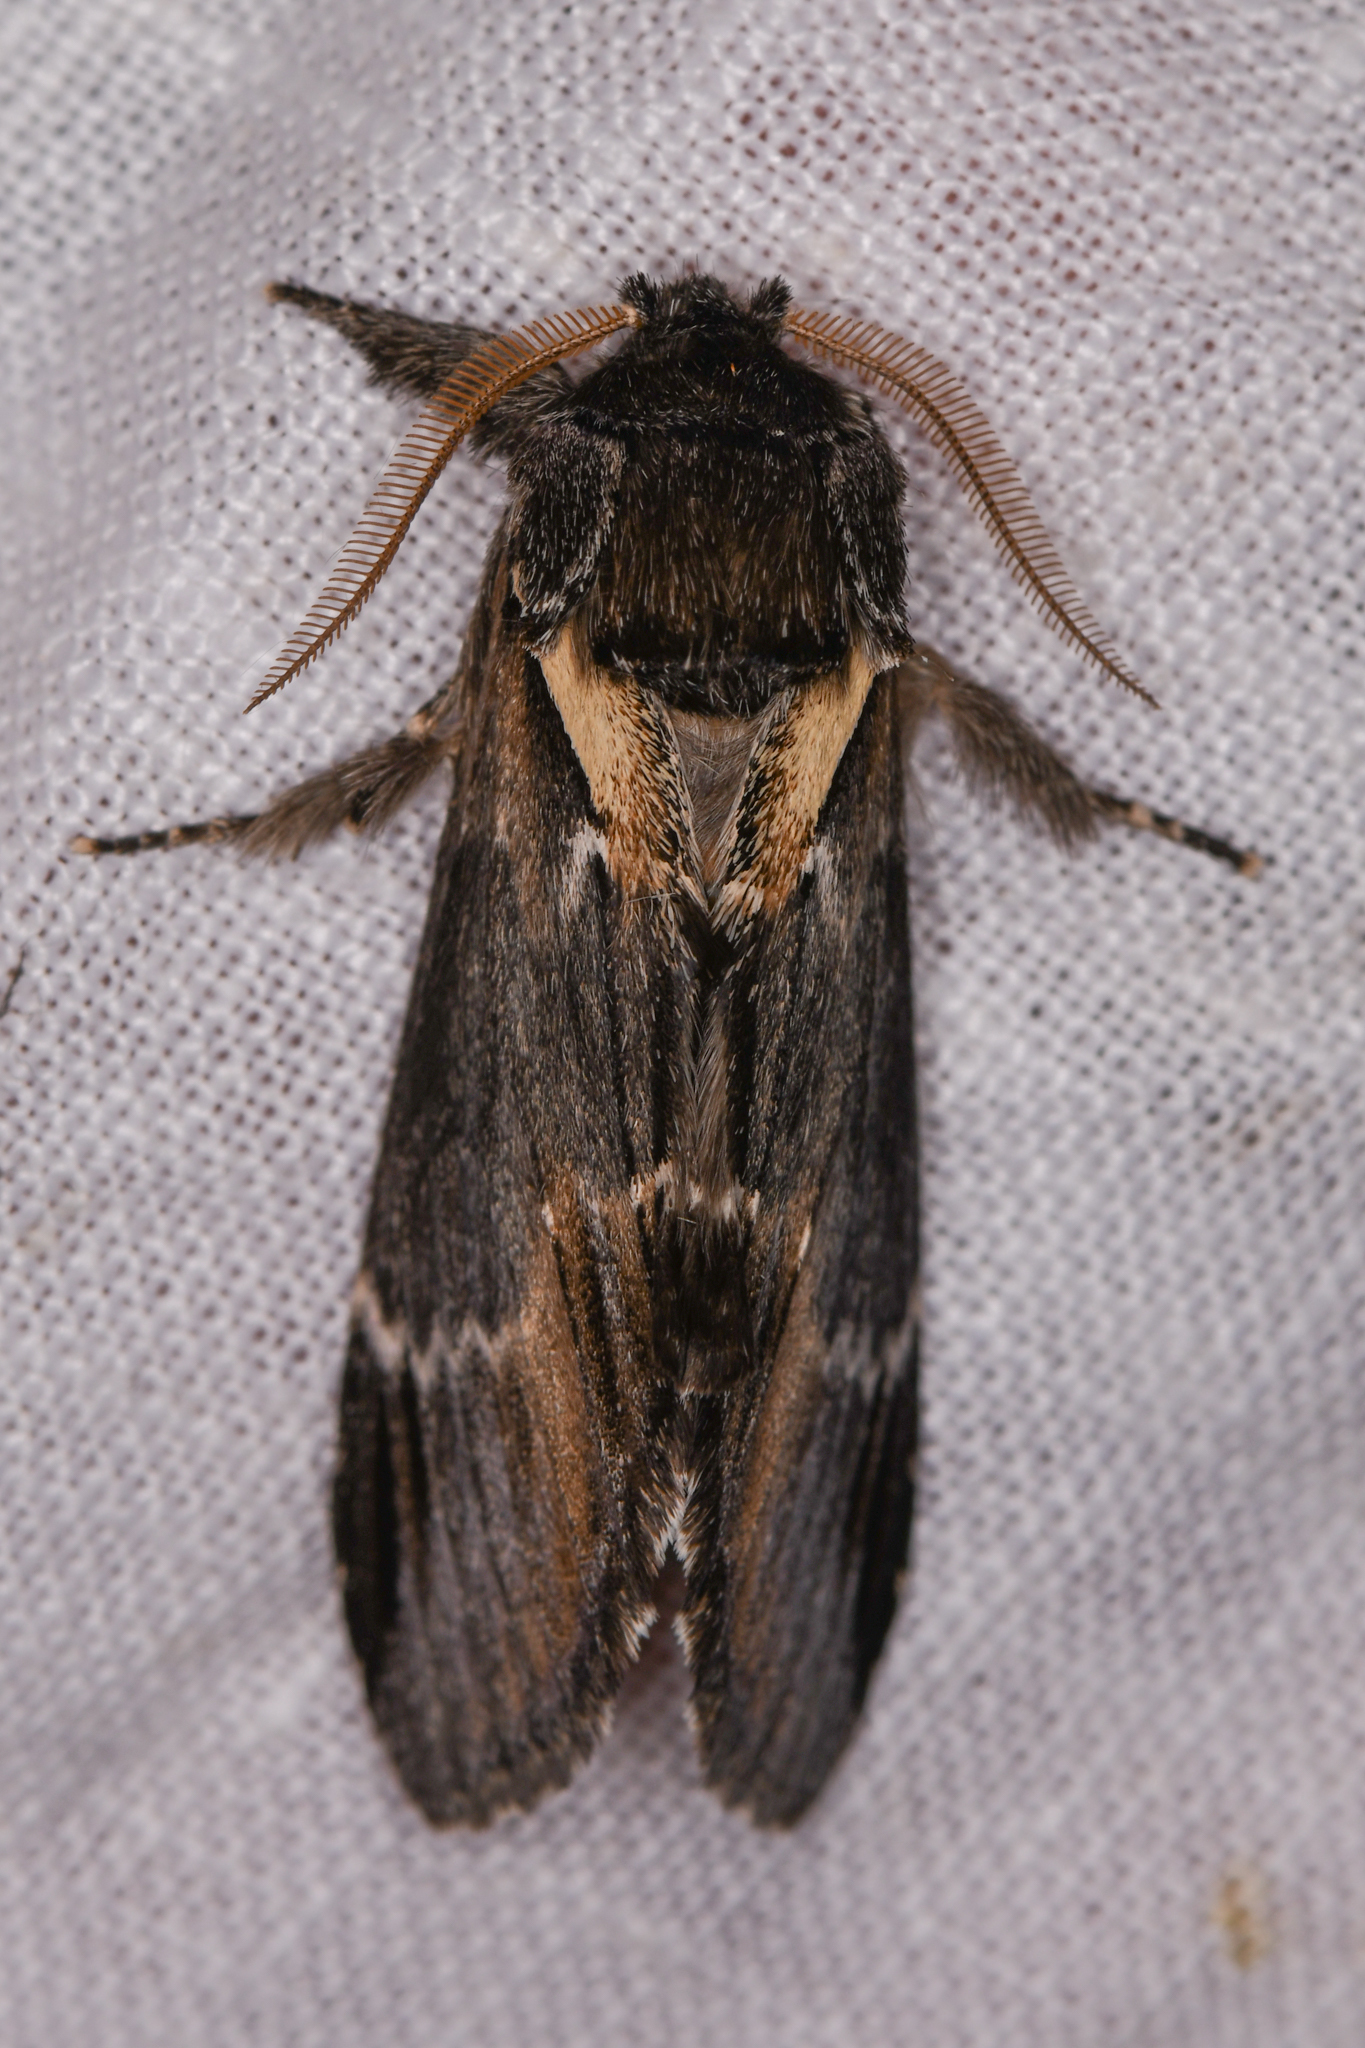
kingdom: Animalia
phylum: Arthropoda
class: Insecta
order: Lepidoptera
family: Notodontidae
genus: Pheosia
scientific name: Pheosia rimosa
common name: Black-rimmed prominent
